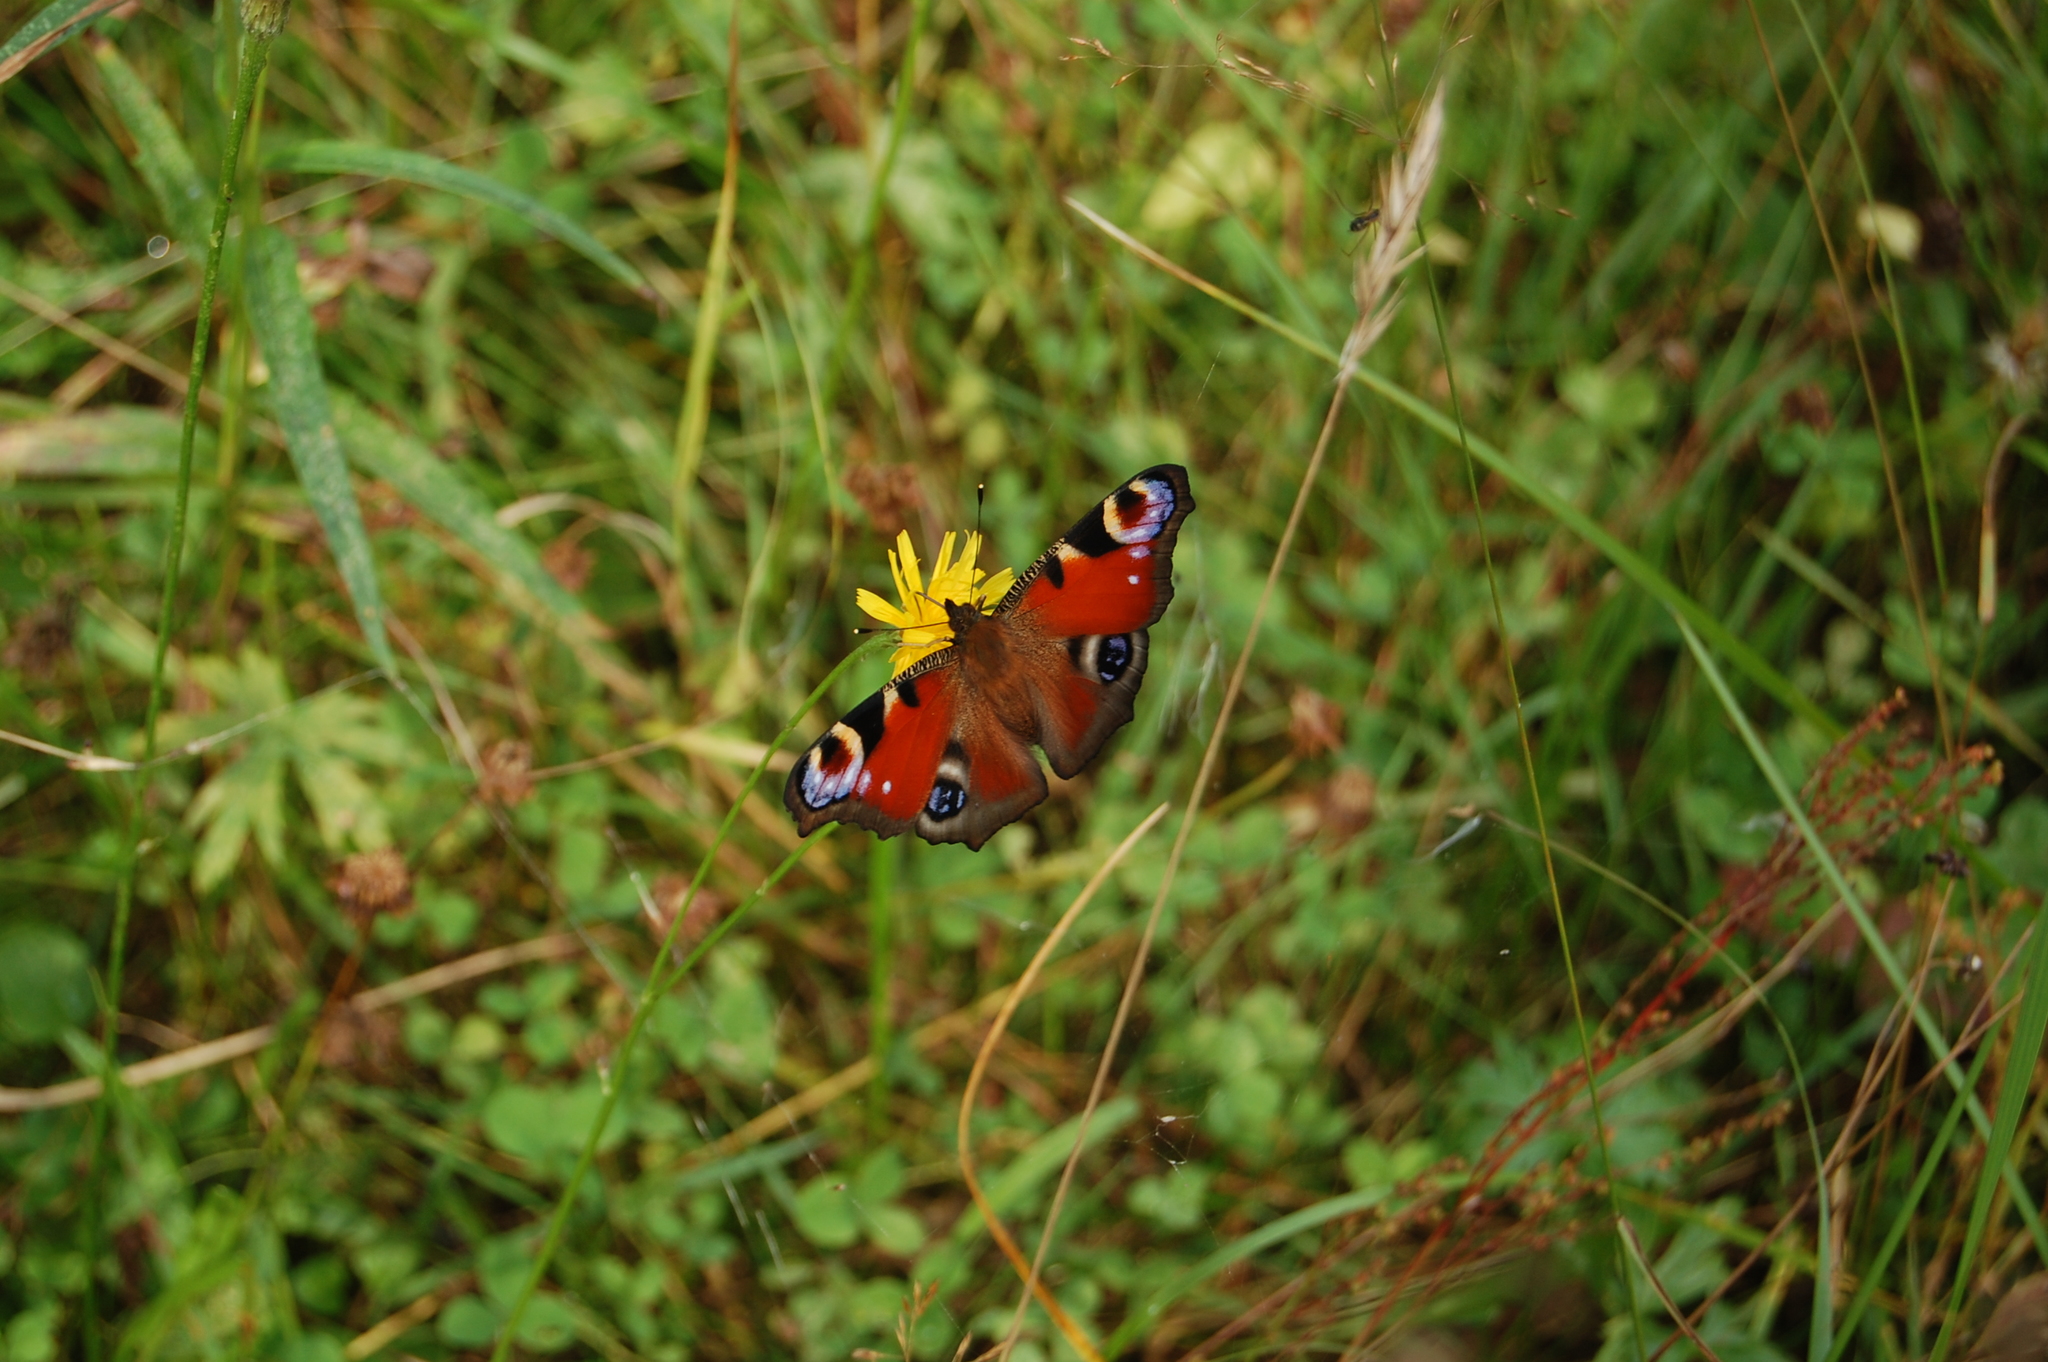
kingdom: Animalia
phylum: Arthropoda
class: Insecta
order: Lepidoptera
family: Nymphalidae
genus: Aglais
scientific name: Aglais io
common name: Peacock
